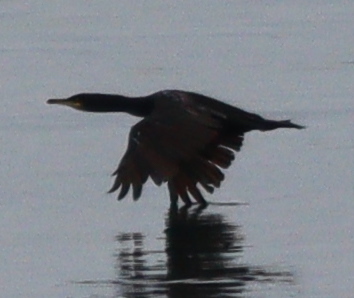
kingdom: Animalia
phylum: Chordata
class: Aves
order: Suliformes
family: Phalacrocoracidae
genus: Phalacrocorax
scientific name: Phalacrocorax aristotelis
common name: European shag
